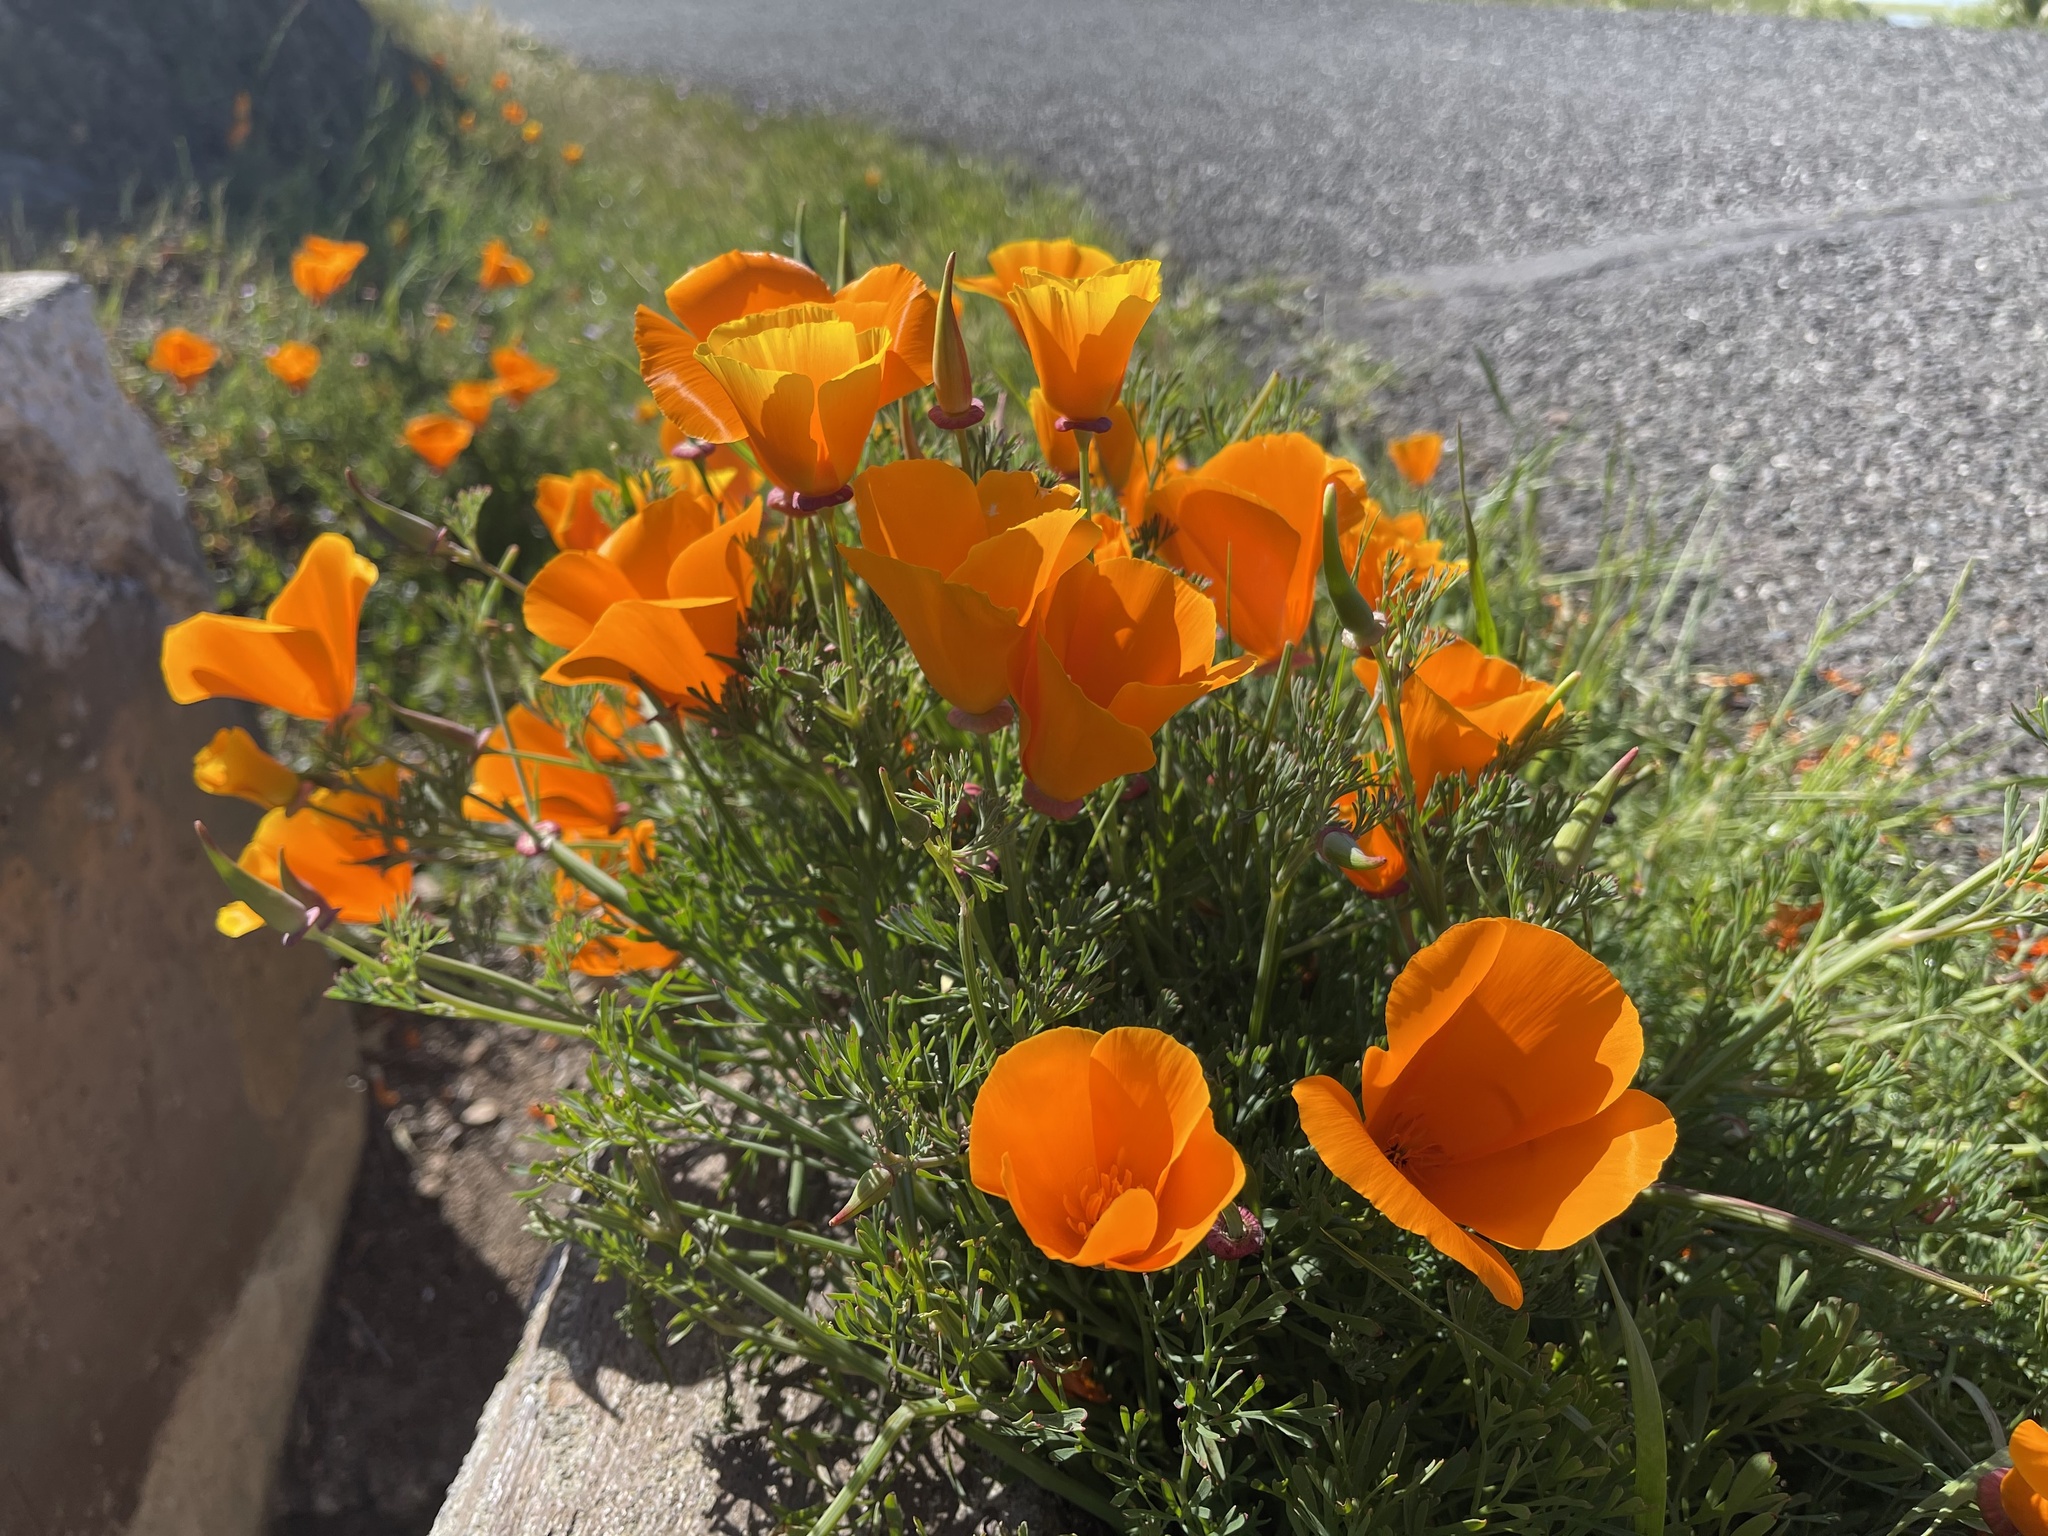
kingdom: Plantae
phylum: Tracheophyta
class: Magnoliopsida
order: Ranunculales
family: Papaveraceae
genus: Eschscholzia
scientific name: Eschscholzia californica
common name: California poppy
